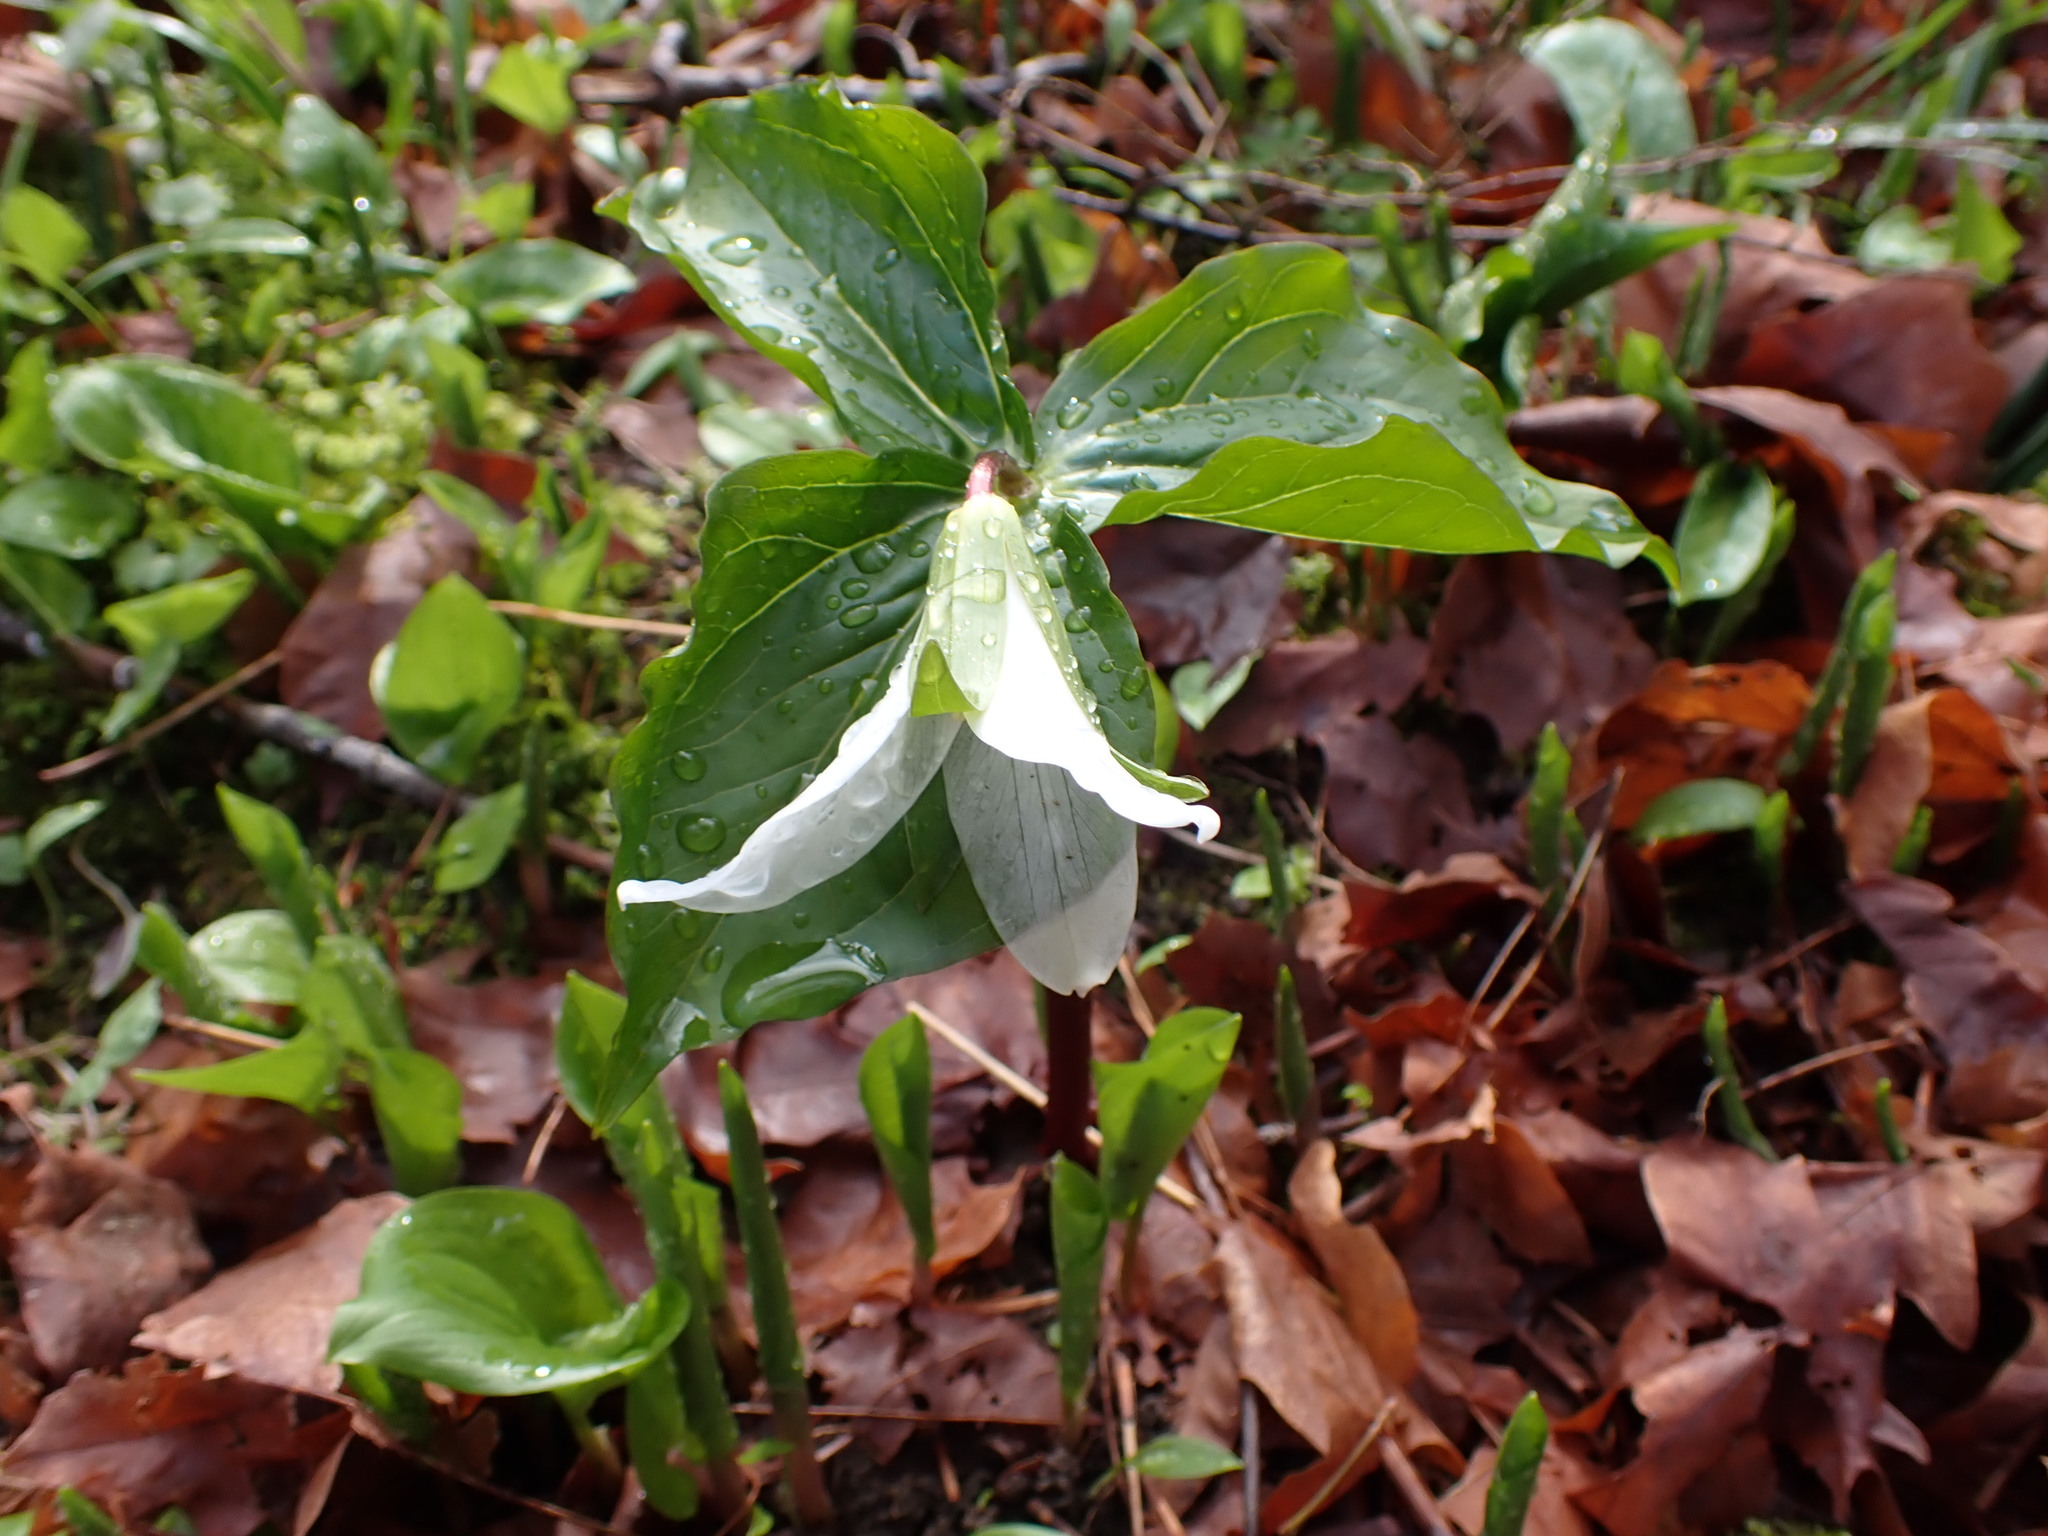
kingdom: Plantae
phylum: Tracheophyta
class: Liliopsida
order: Liliales
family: Melanthiaceae
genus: Trillium
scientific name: Trillium ovatum
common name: Pacific trillium
